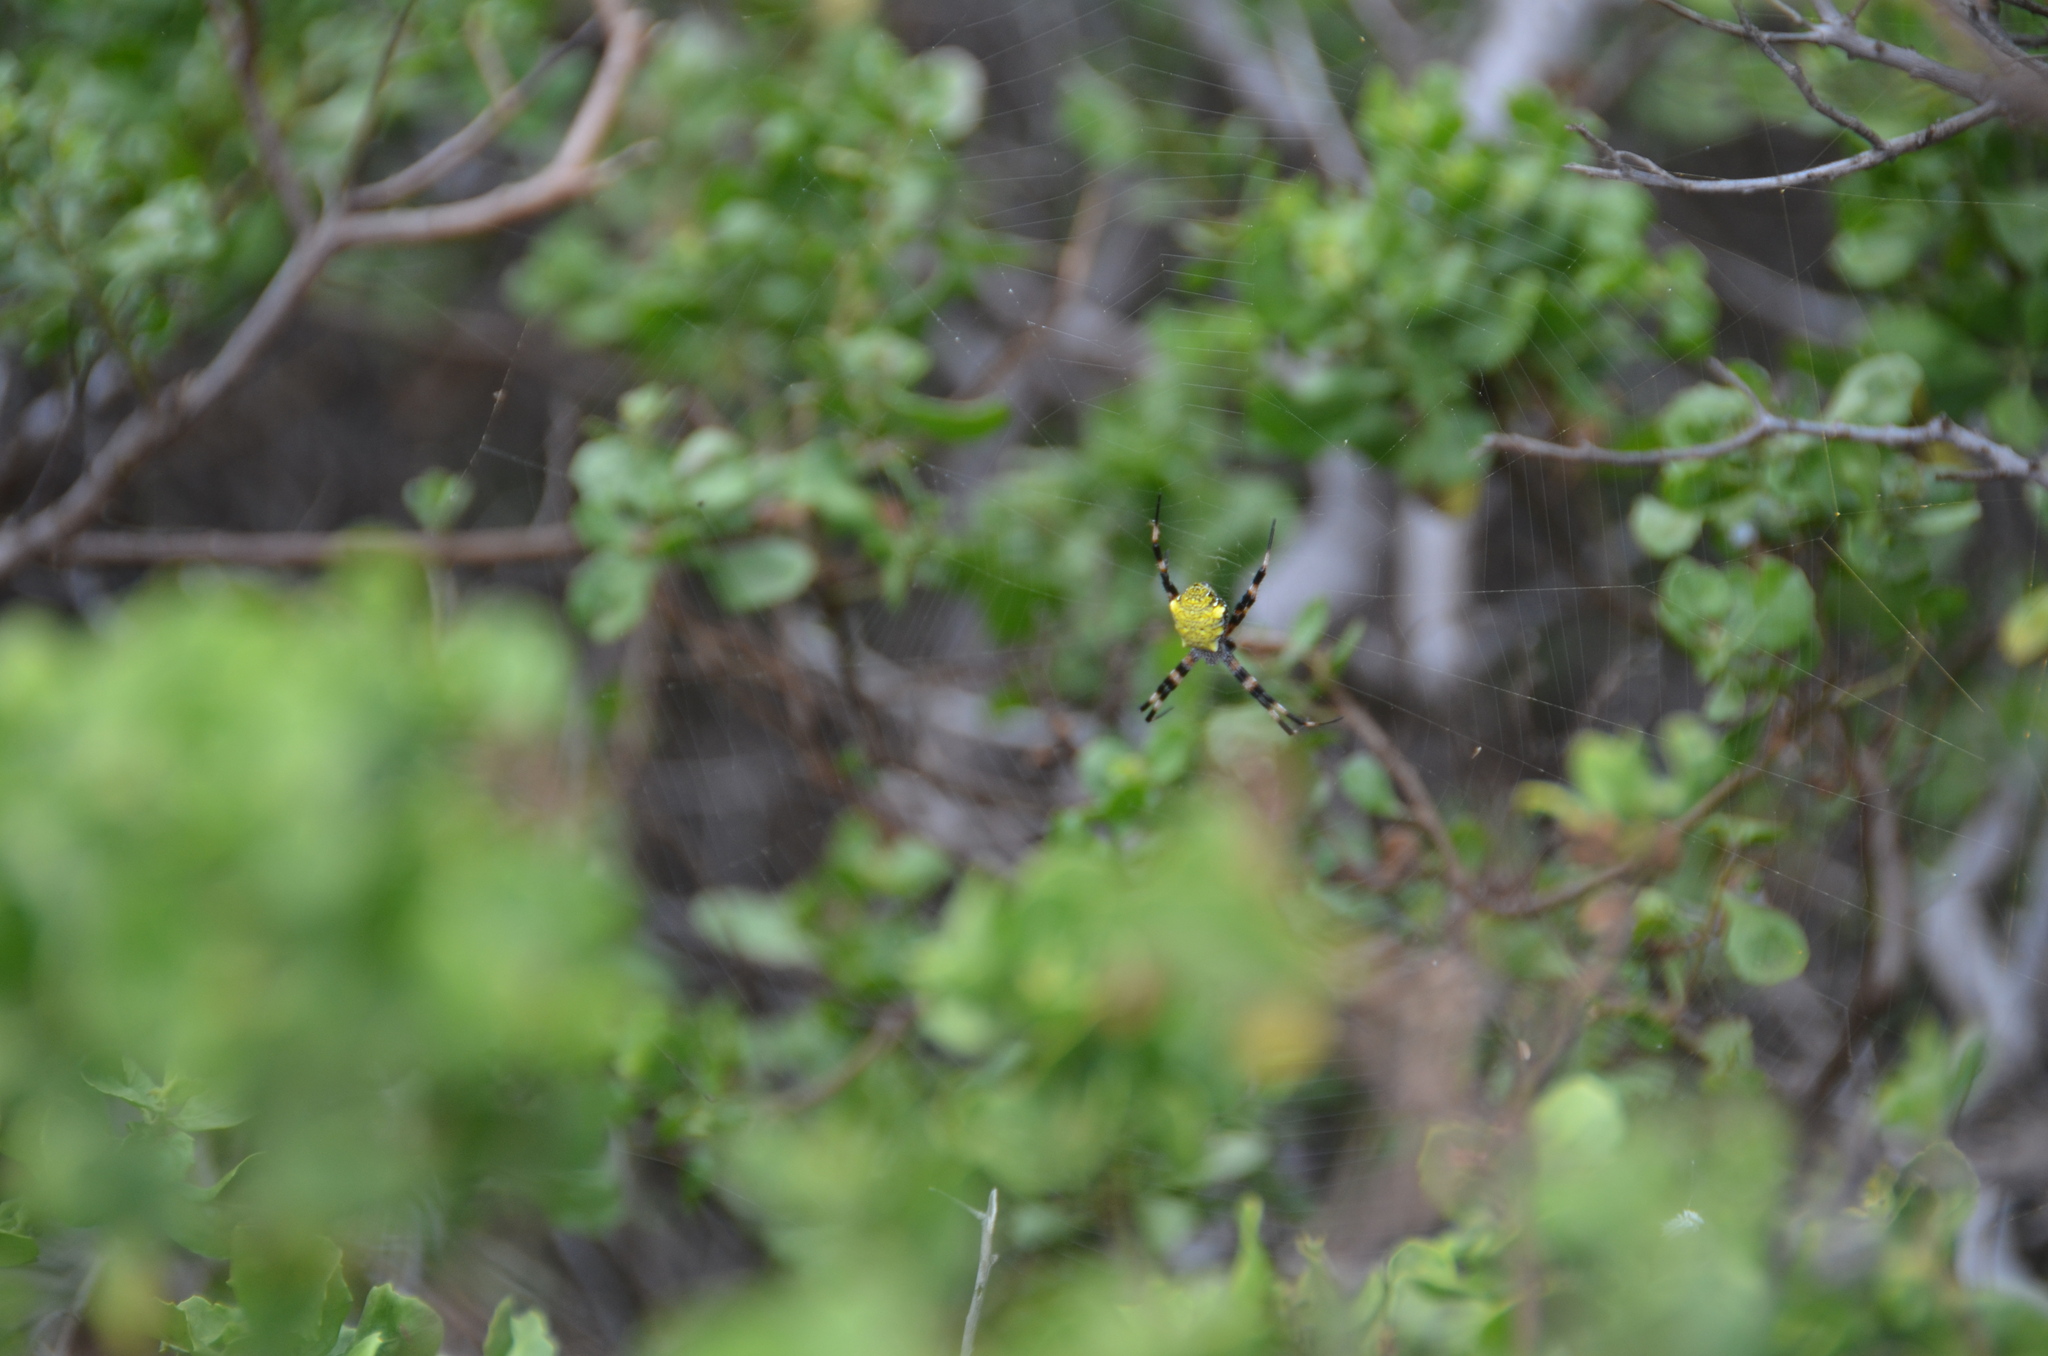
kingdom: Animalia
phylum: Arthropoda
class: Arachnida
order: Araneae
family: Araneidae
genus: Argiope
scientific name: Argiope appensa
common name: Garden spider
